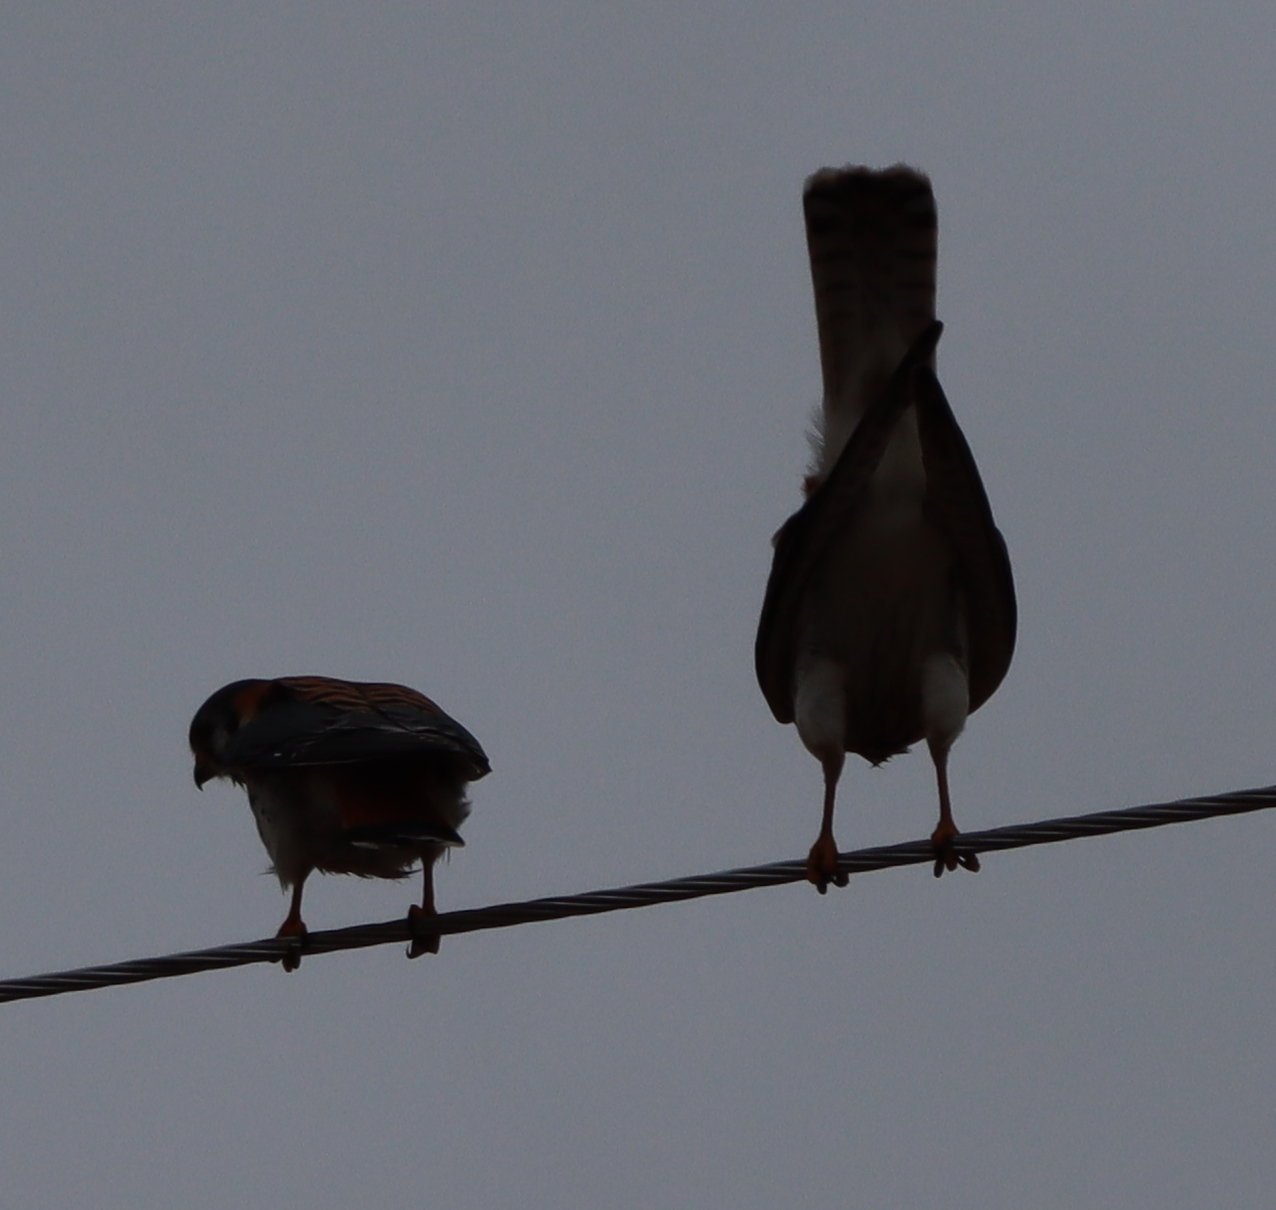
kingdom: Animalia
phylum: Chordata
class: Aves
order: Falconiformes
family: Falconidae
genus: Falco
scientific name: Falco sparverius
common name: American kestrel
